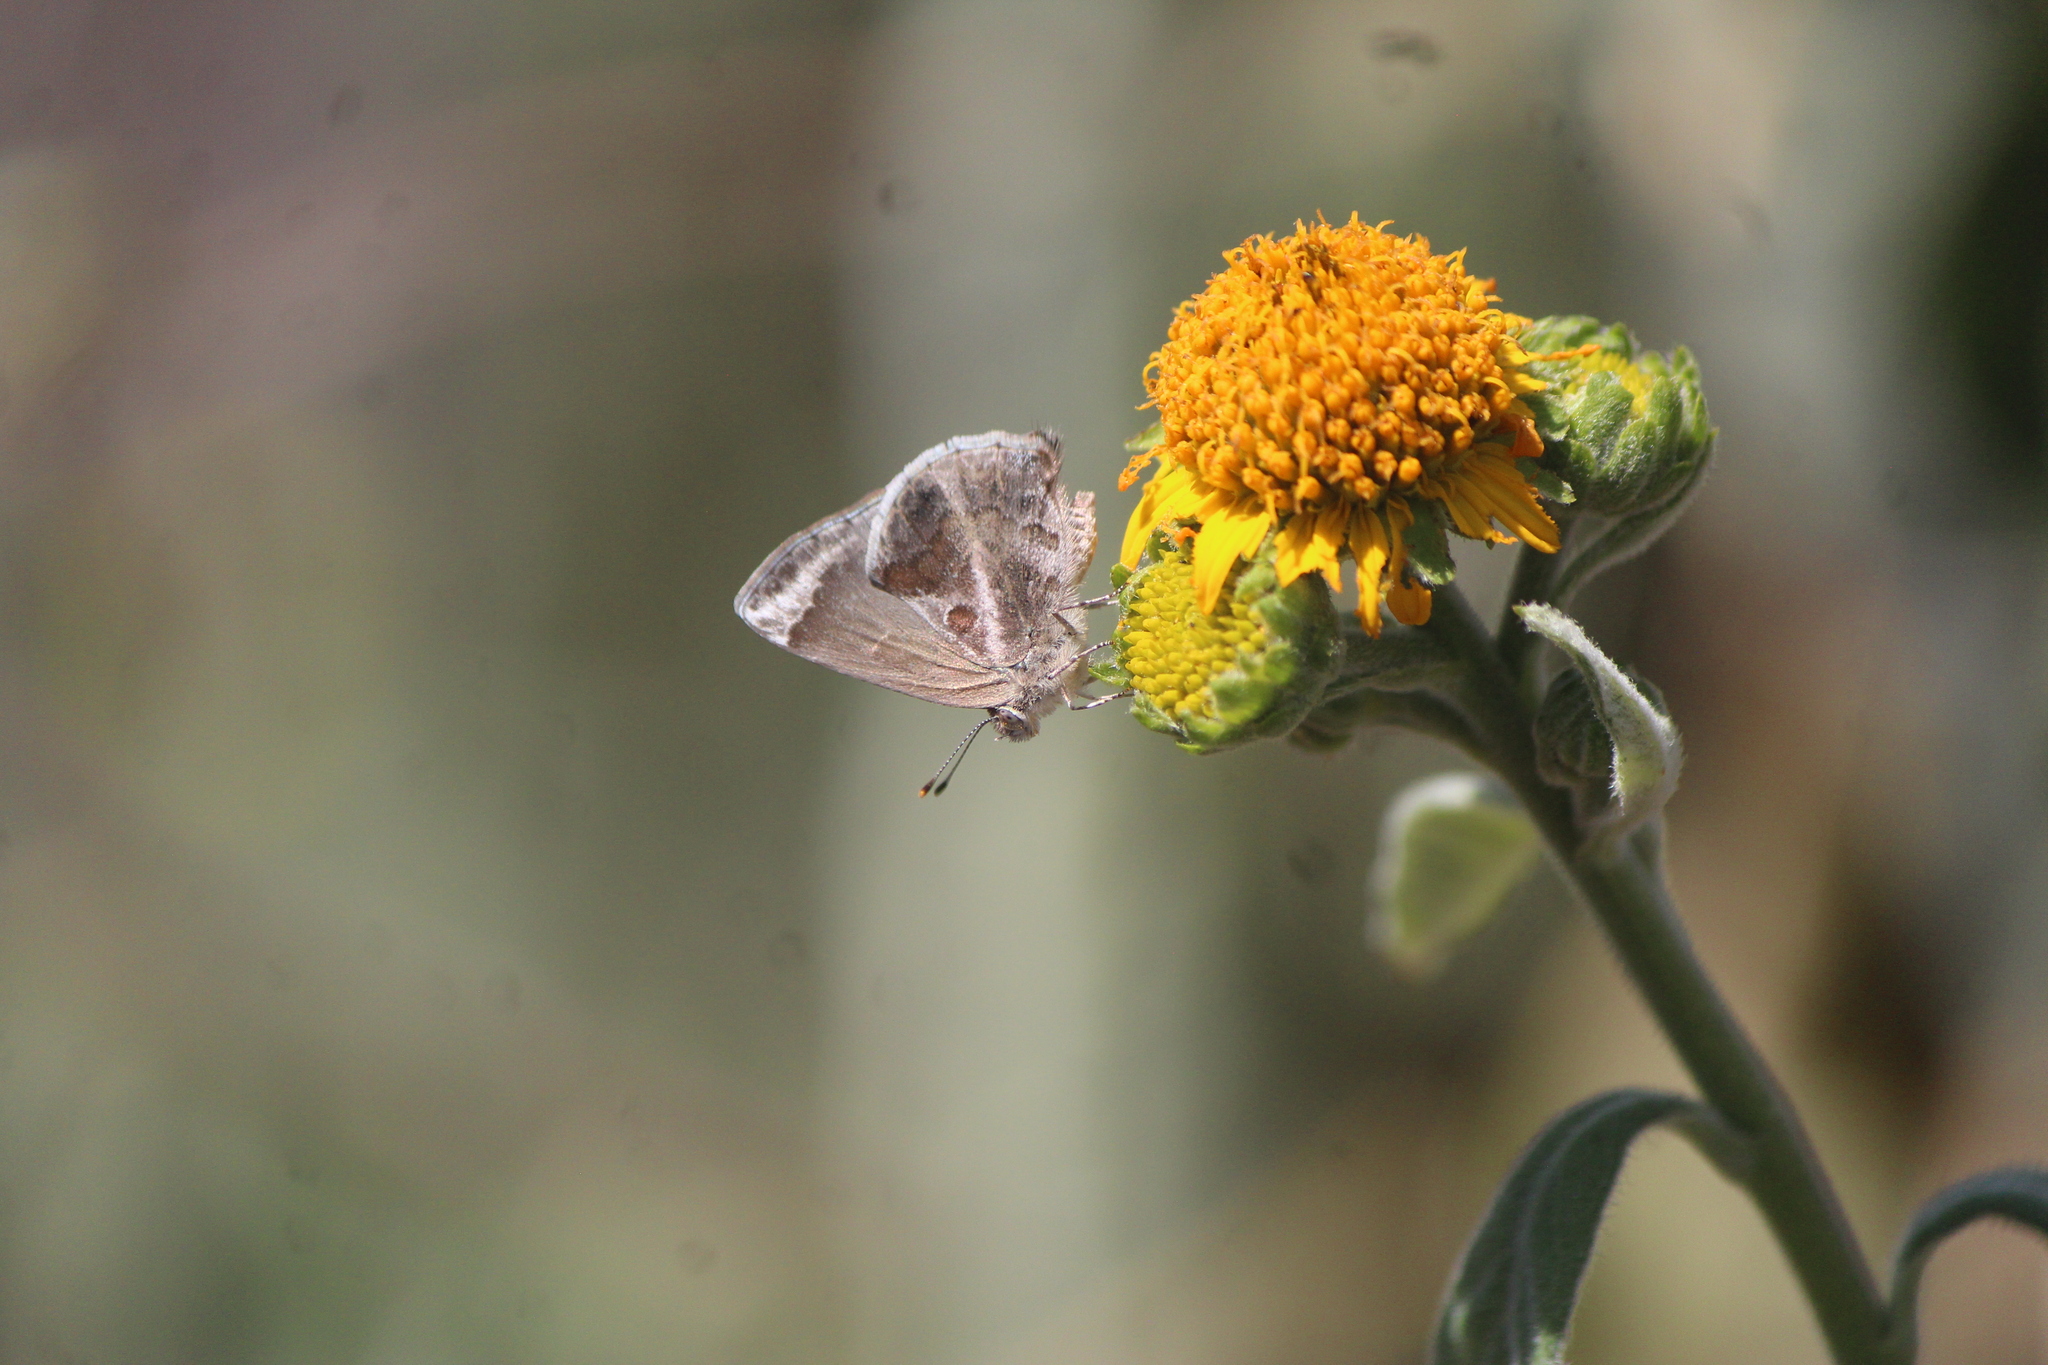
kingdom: Animalia
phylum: Arthropoda
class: Insecta
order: Lepidoptera
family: Lycaenidae
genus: Strymon
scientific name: Strymon bazochii
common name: Lantana scrub-hairstreak
